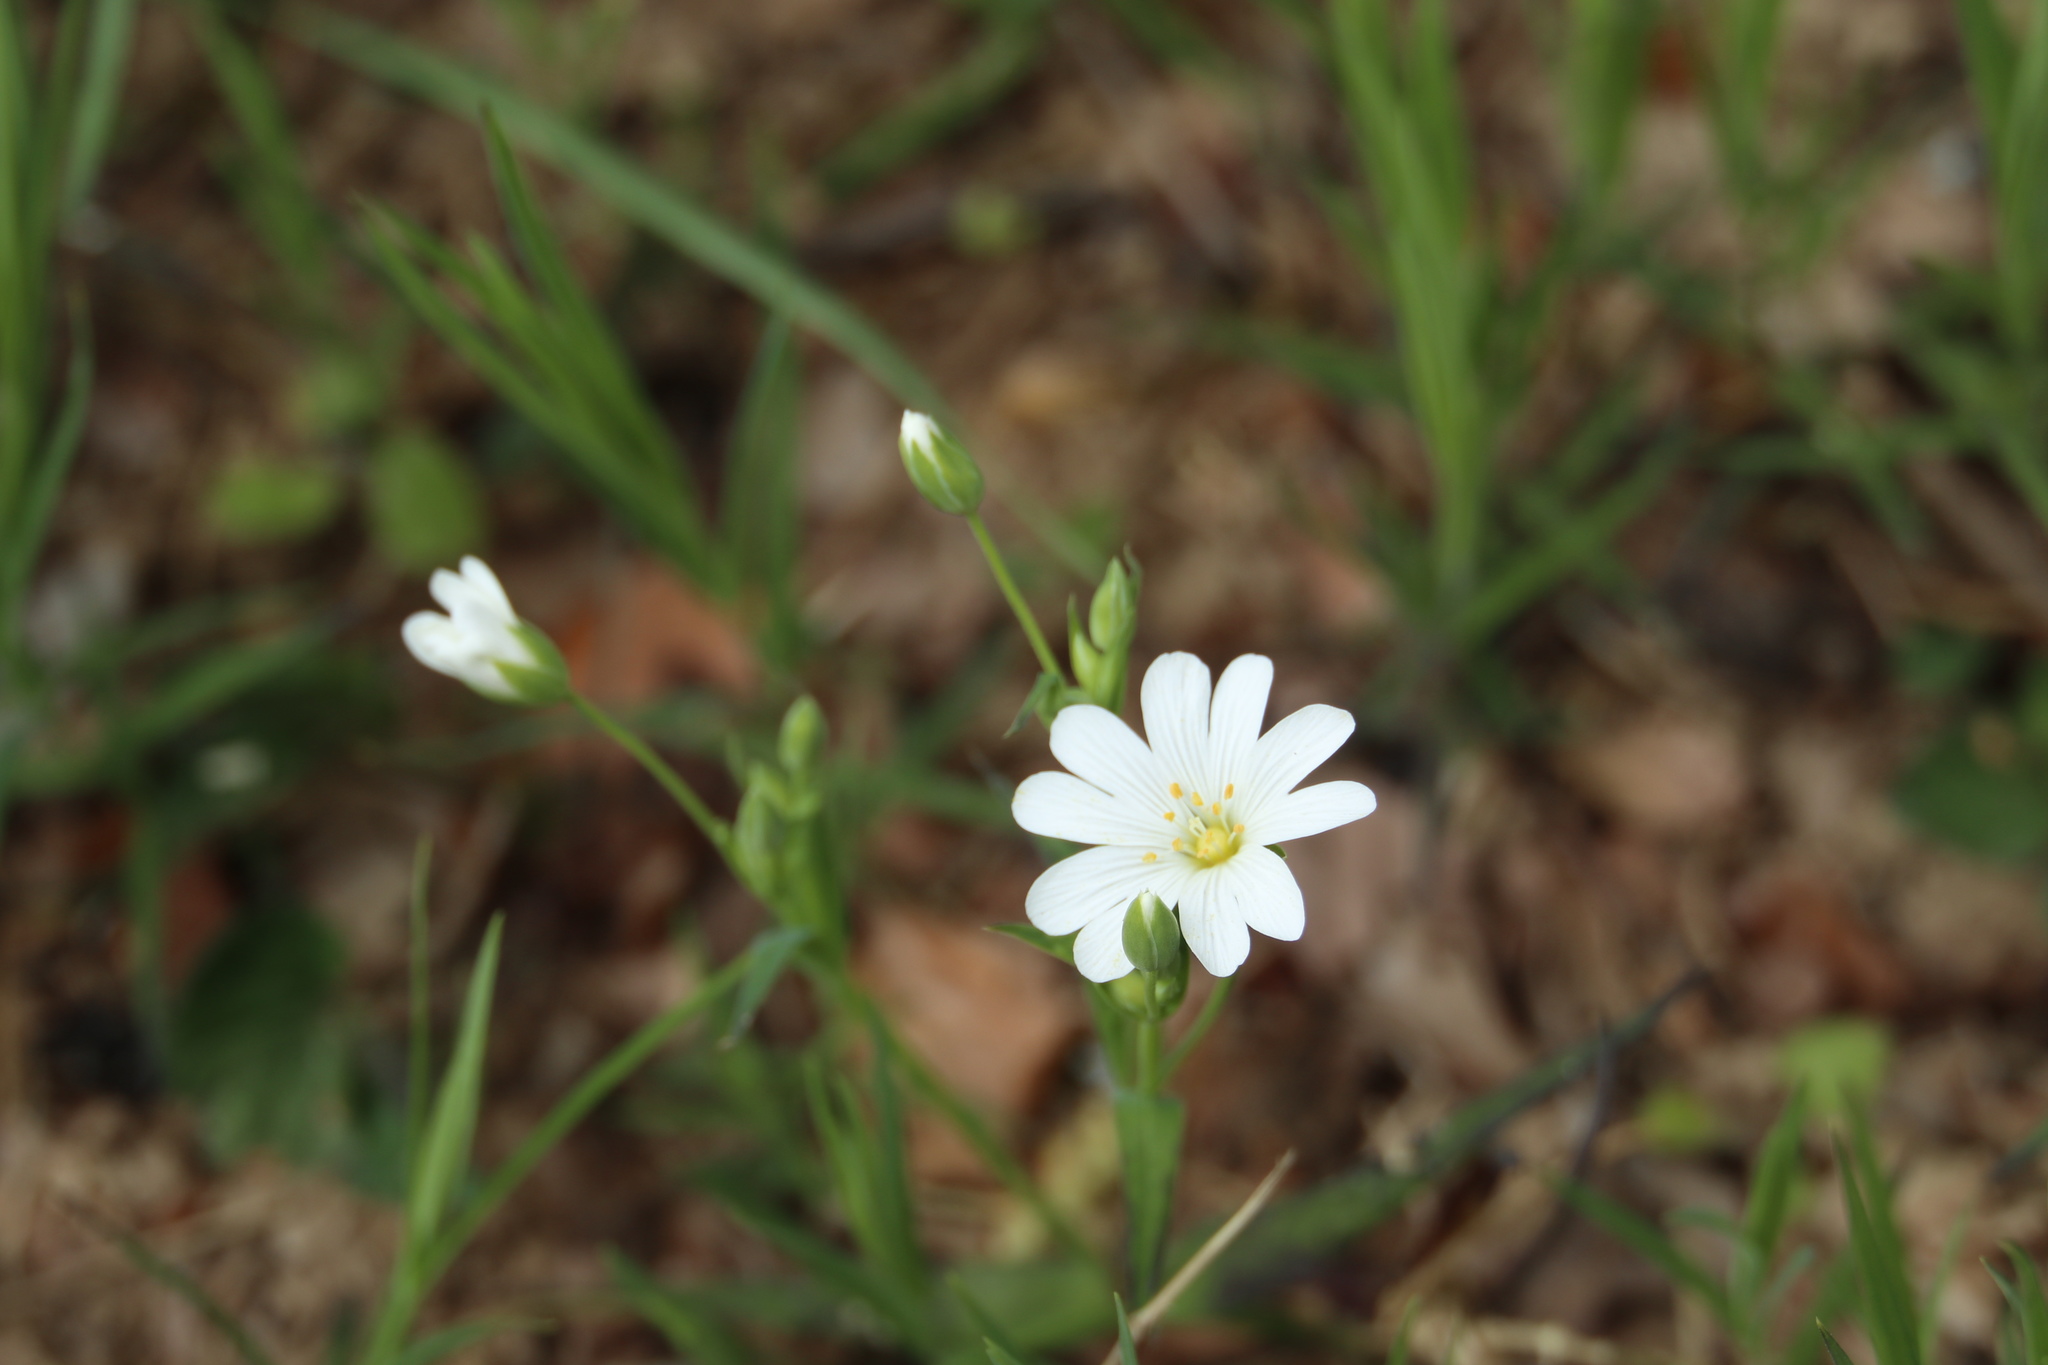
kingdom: Plantae
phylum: Tracheophyta
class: Magnoliopsida
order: Caryophyllales
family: Caryophyllaceae
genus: Rabelera
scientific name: Rabelera holostea
